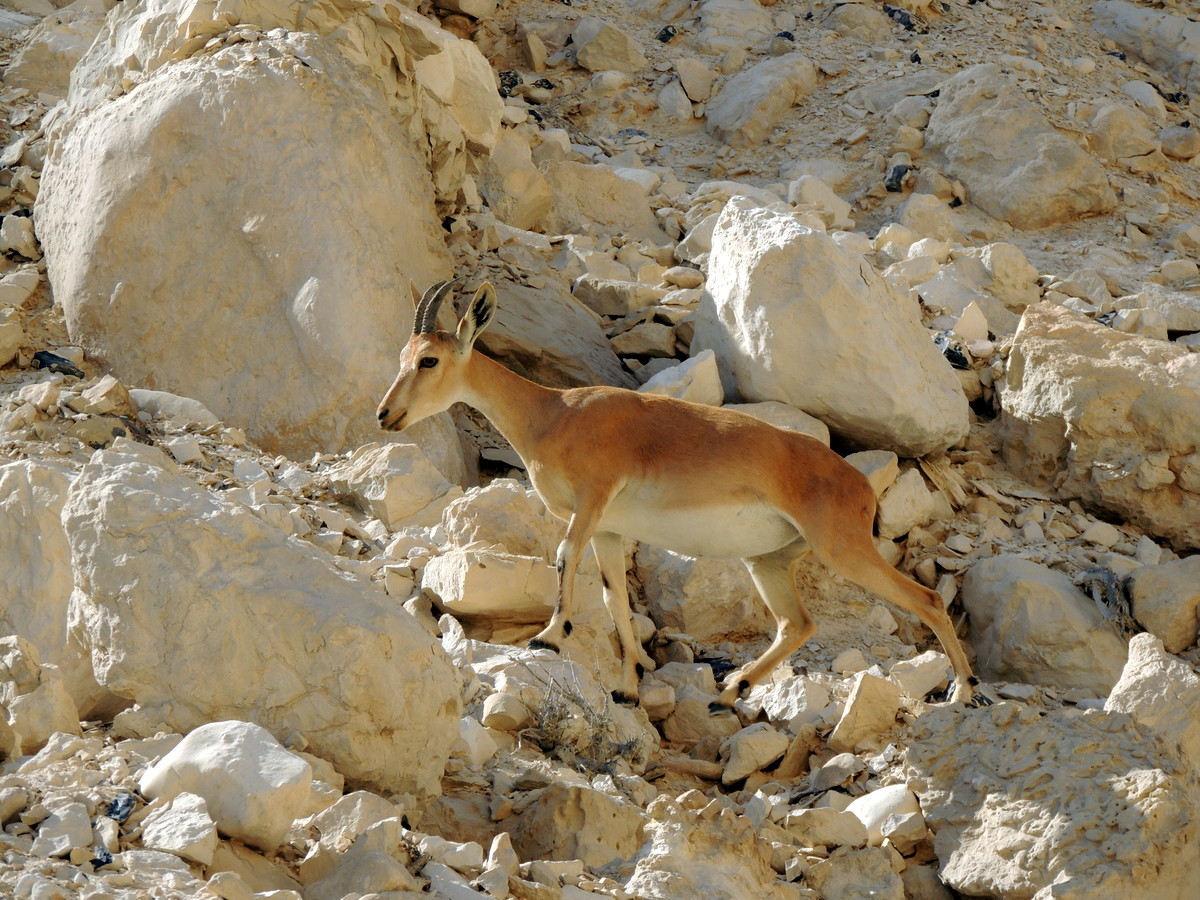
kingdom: Animalia
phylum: Chordata
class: Mammalia
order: Artiodactyla
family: Bovidae
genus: Capra
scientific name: Capra nubiana
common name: Nubian ibex
